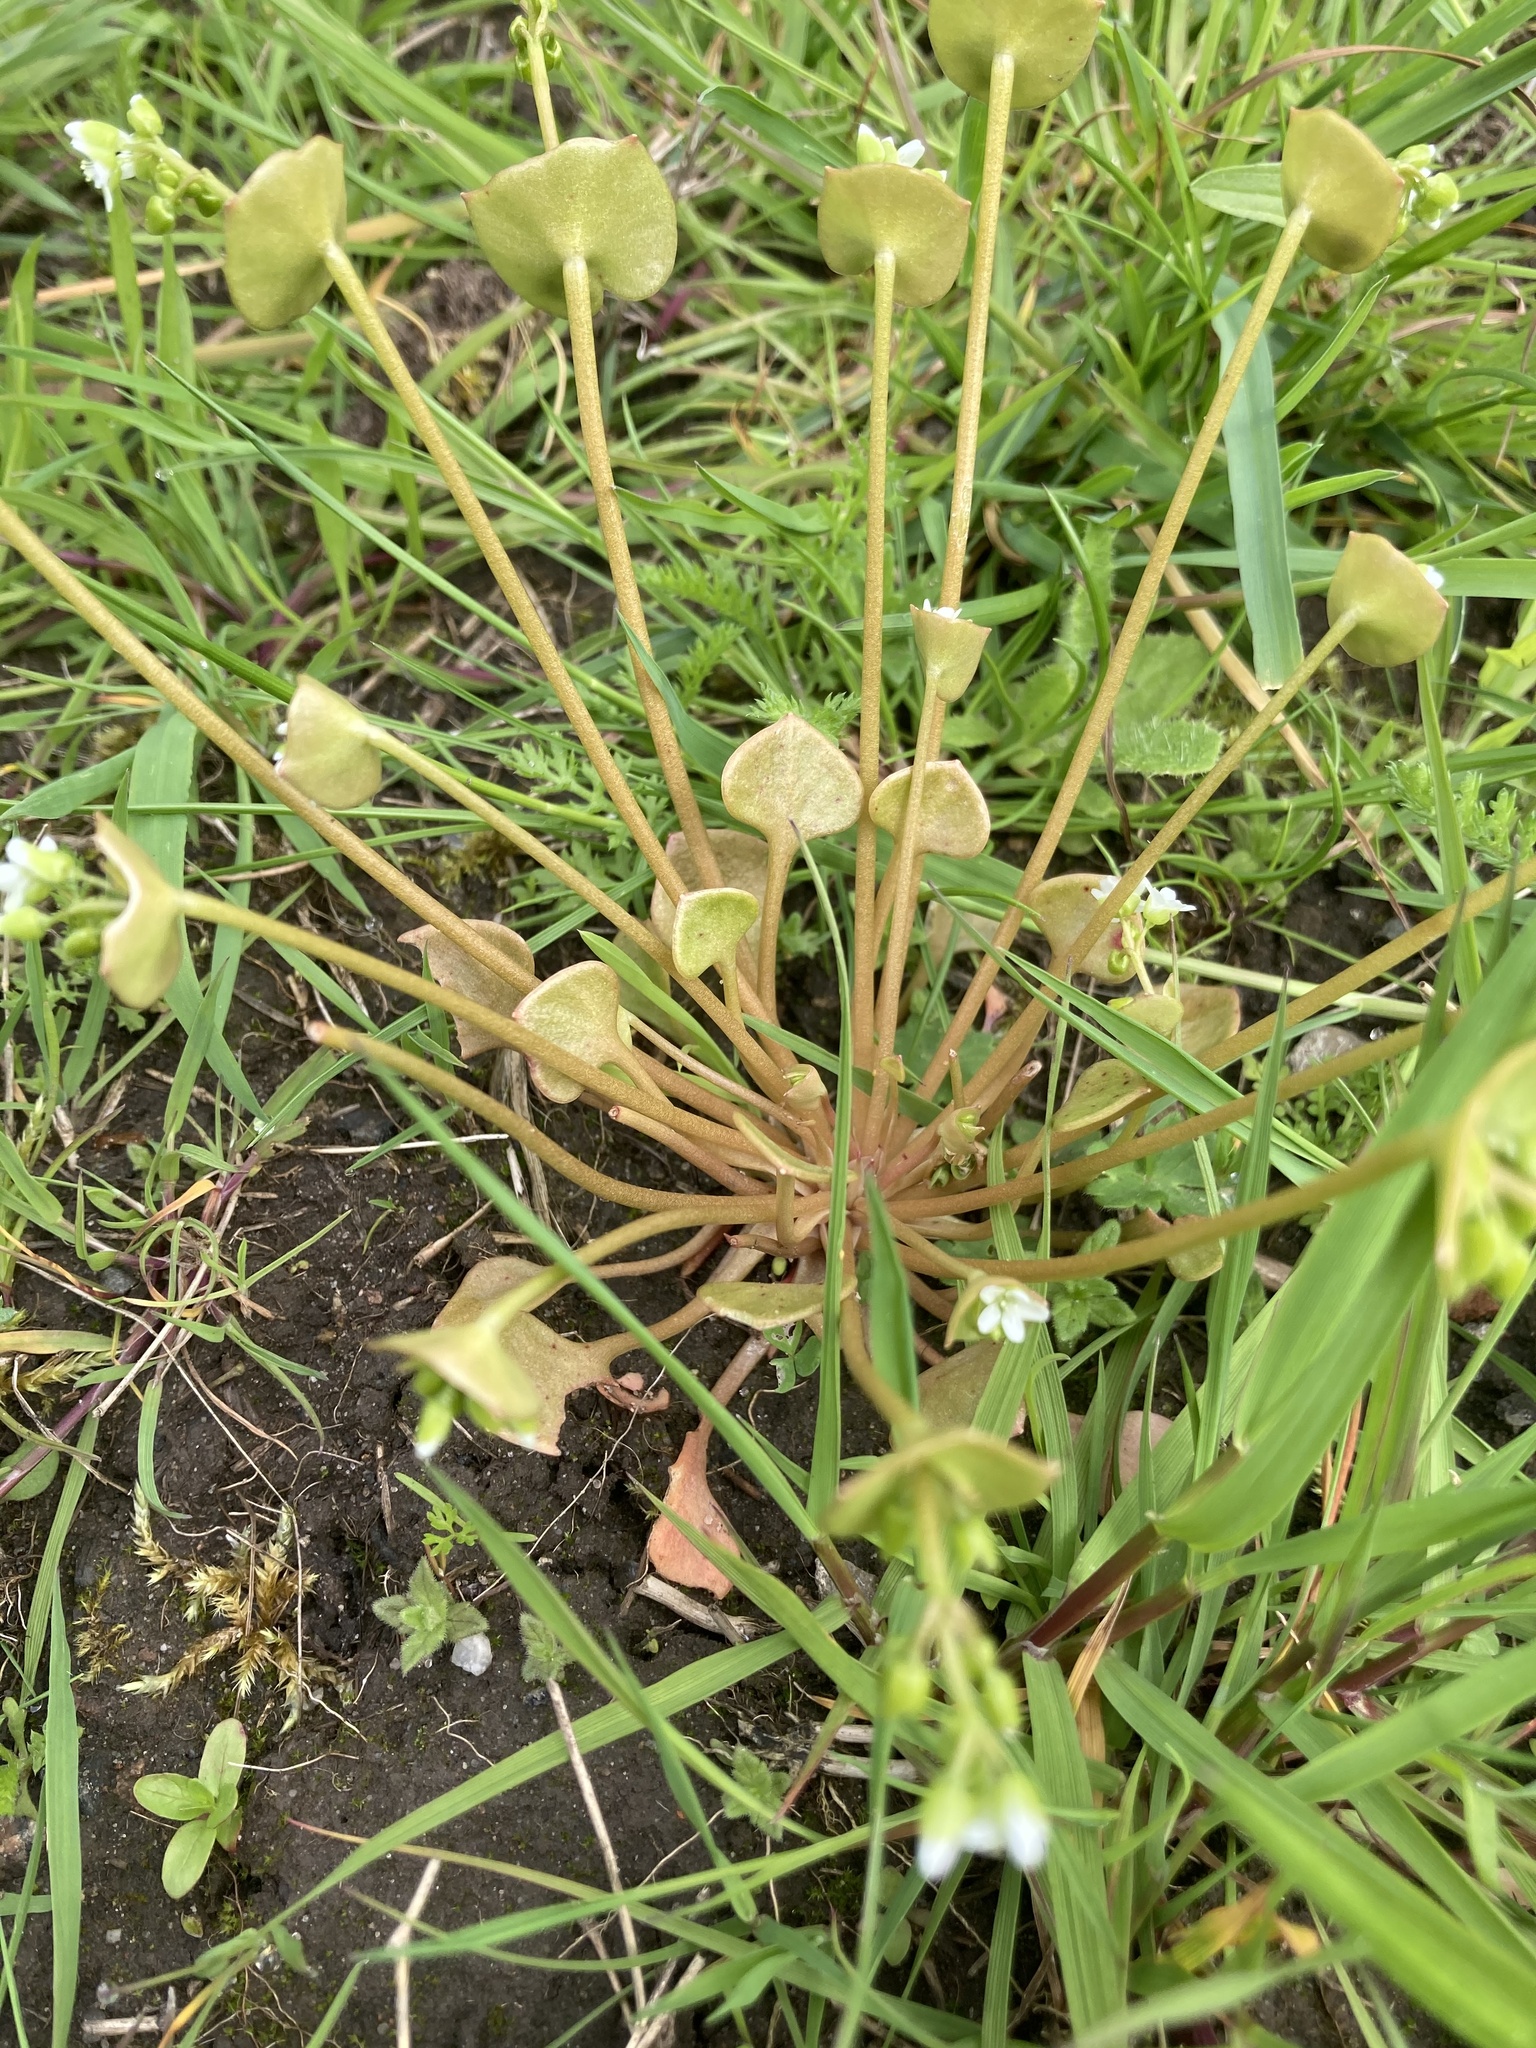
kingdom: Plantae
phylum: Tracheophyta
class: Magnoliopsida
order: Caryophyllales
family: Montiaceae
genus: Claytonia
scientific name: Claytonia perfoliata
